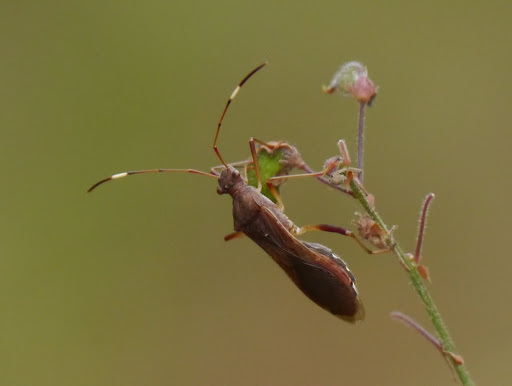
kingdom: Animalia
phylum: Arthropoda
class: Insecta
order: Hemiptera
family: Alydidae
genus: Megalotomus
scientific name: Megalotomus quinquespinosus
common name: Lupine bug
